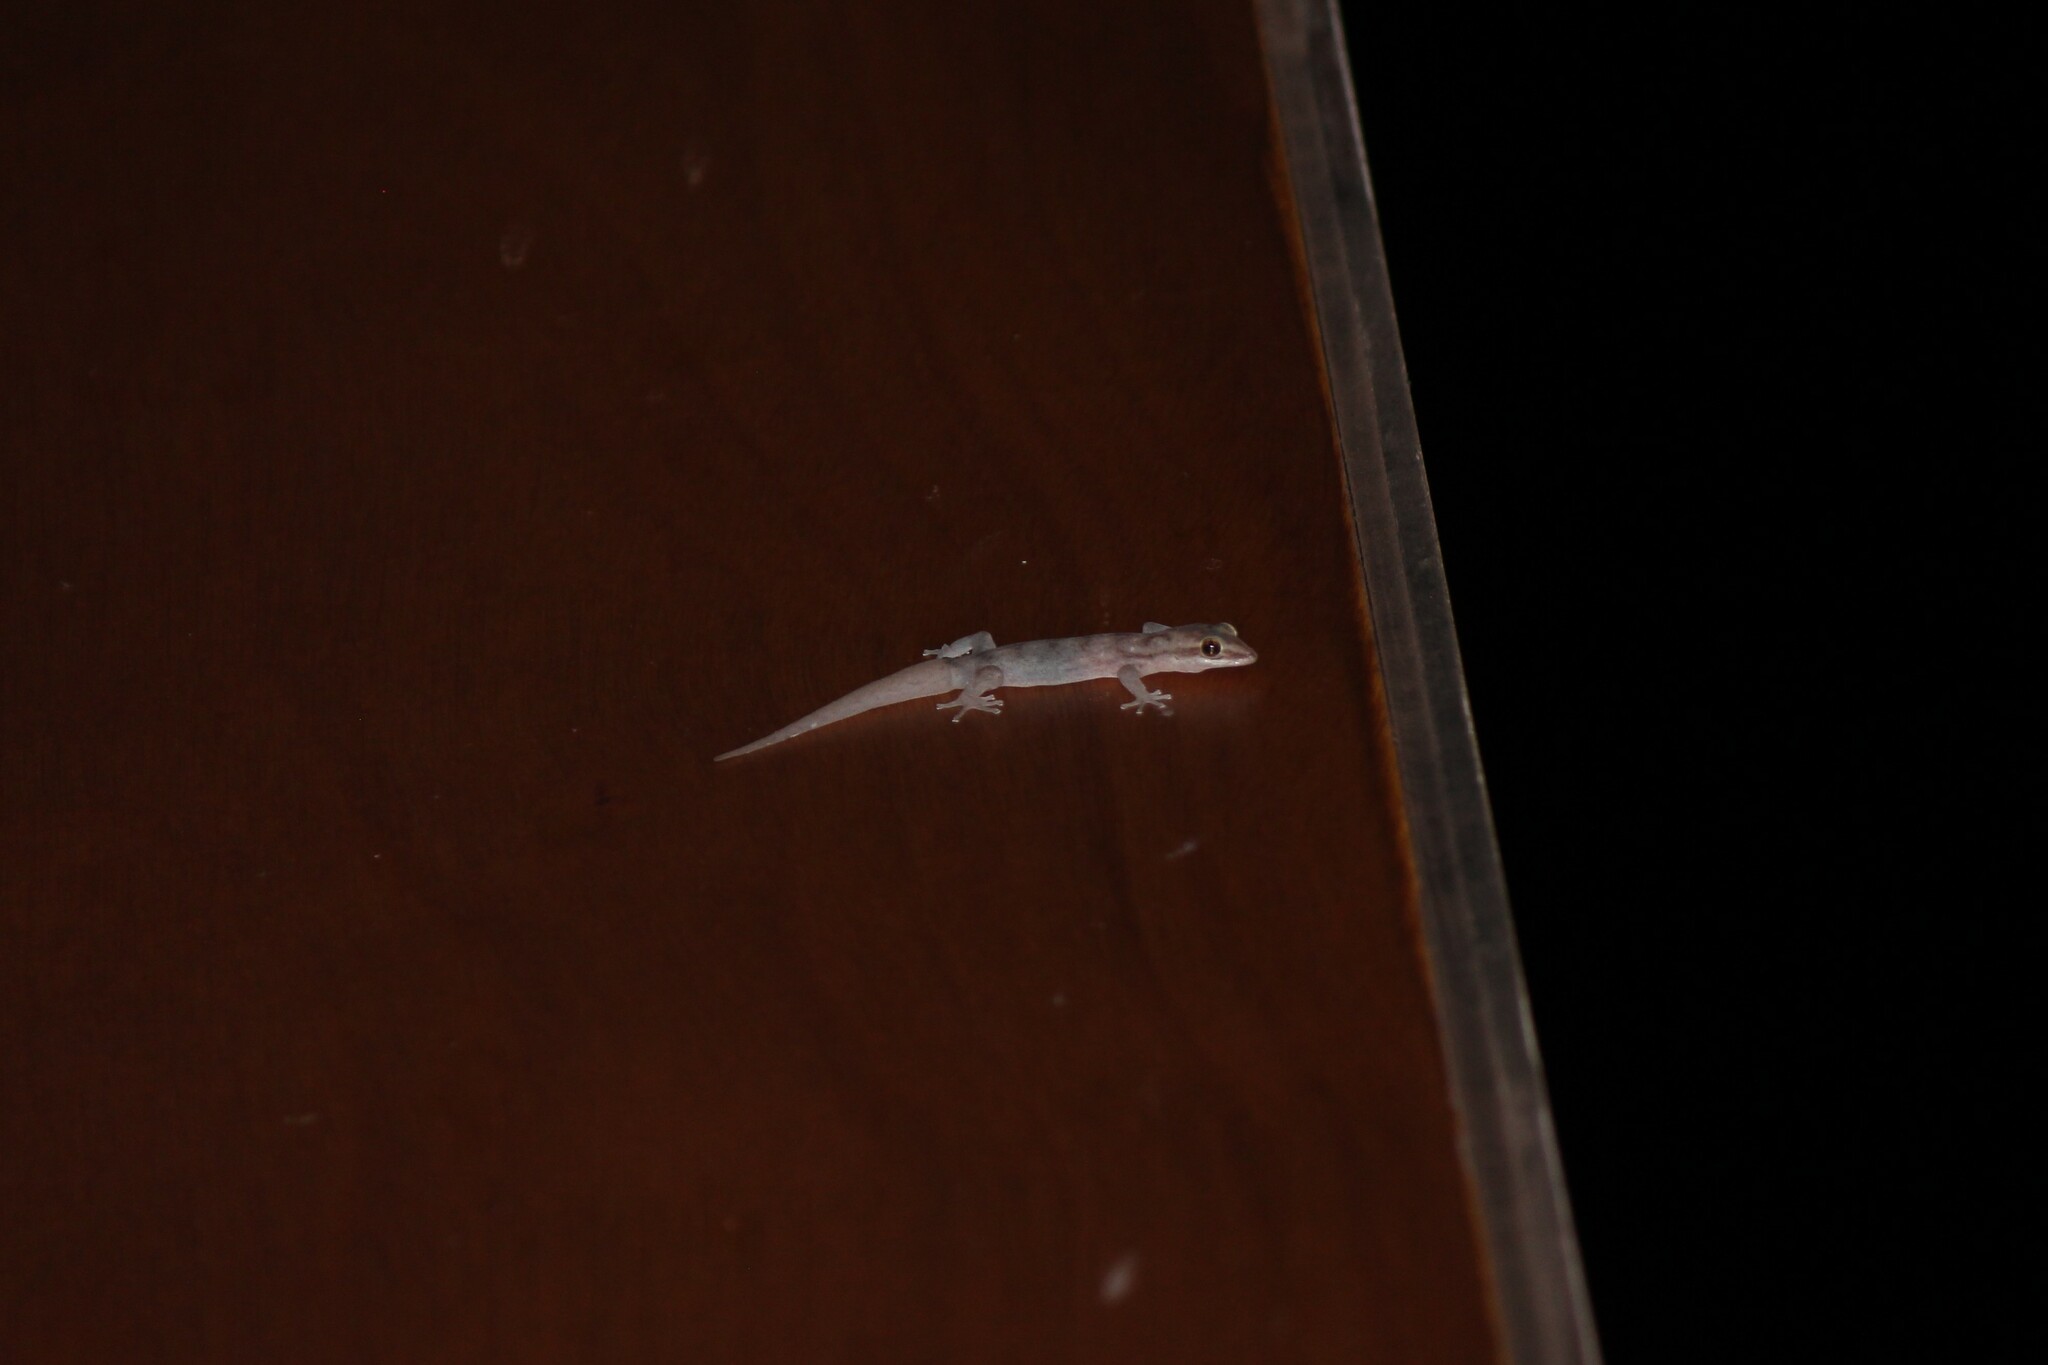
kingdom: Animalia
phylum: Chordata
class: Squamata
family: Phyllodactylidae
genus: Phyllodactylus
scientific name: Phyllodactylus leei
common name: Chatham leaf-toed gecko
